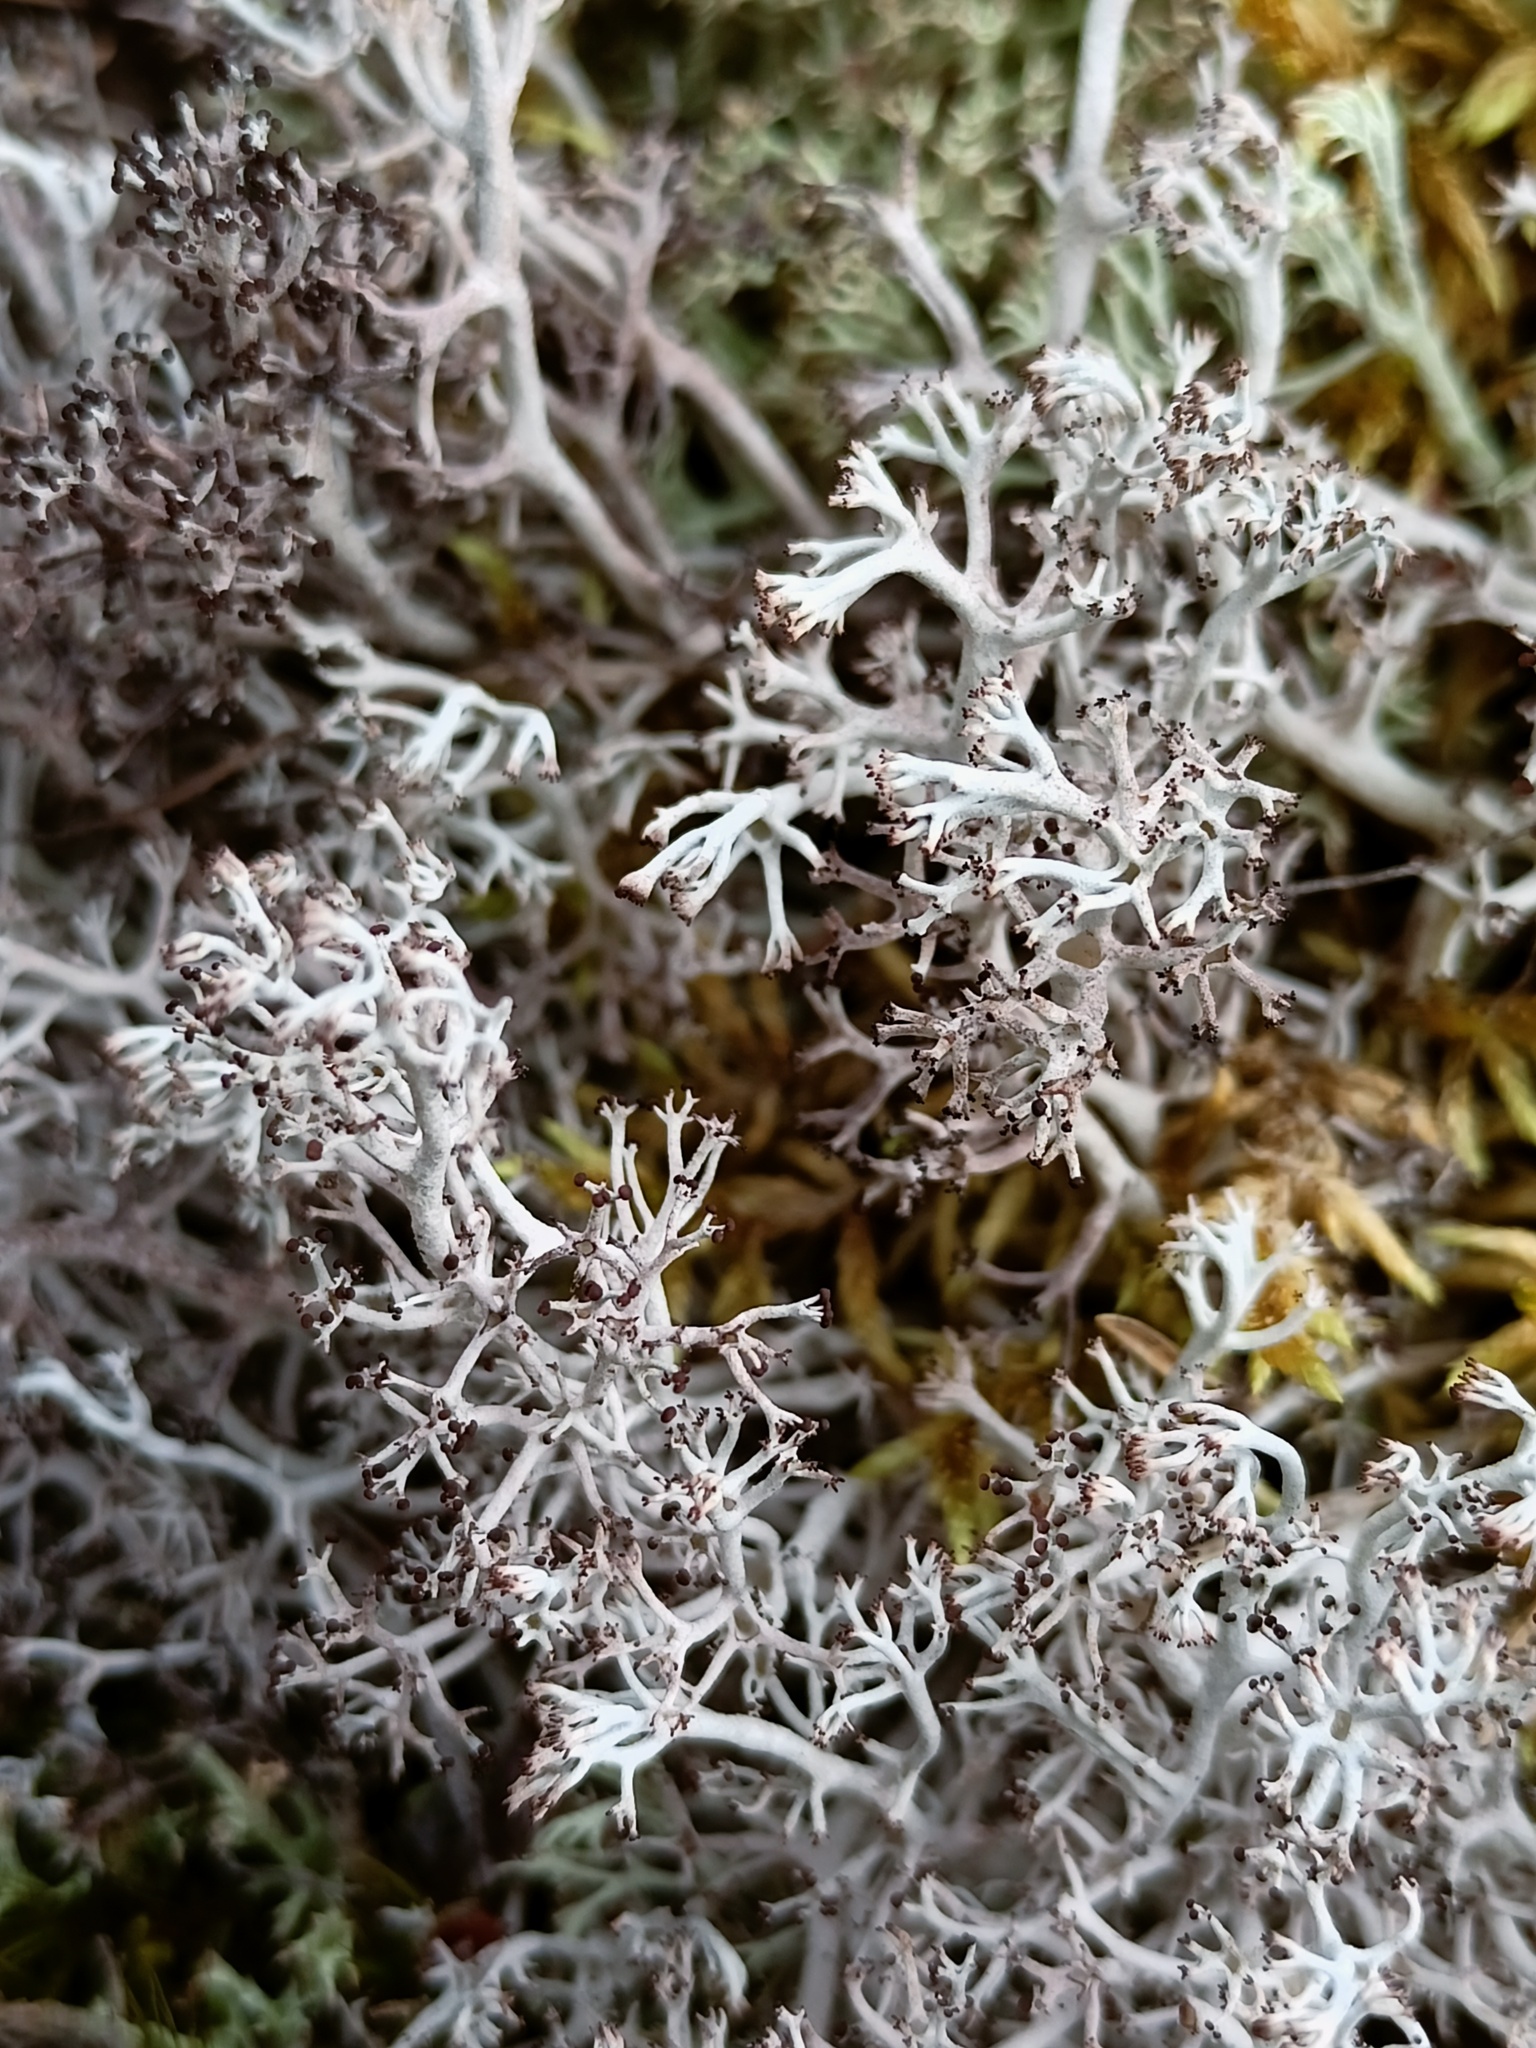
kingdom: Fungi
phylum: Ascomycota
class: Lecanoromycetes
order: Lecanorales
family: Cladoniaceae
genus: Cladonia
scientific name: Cladonia rangiferina
